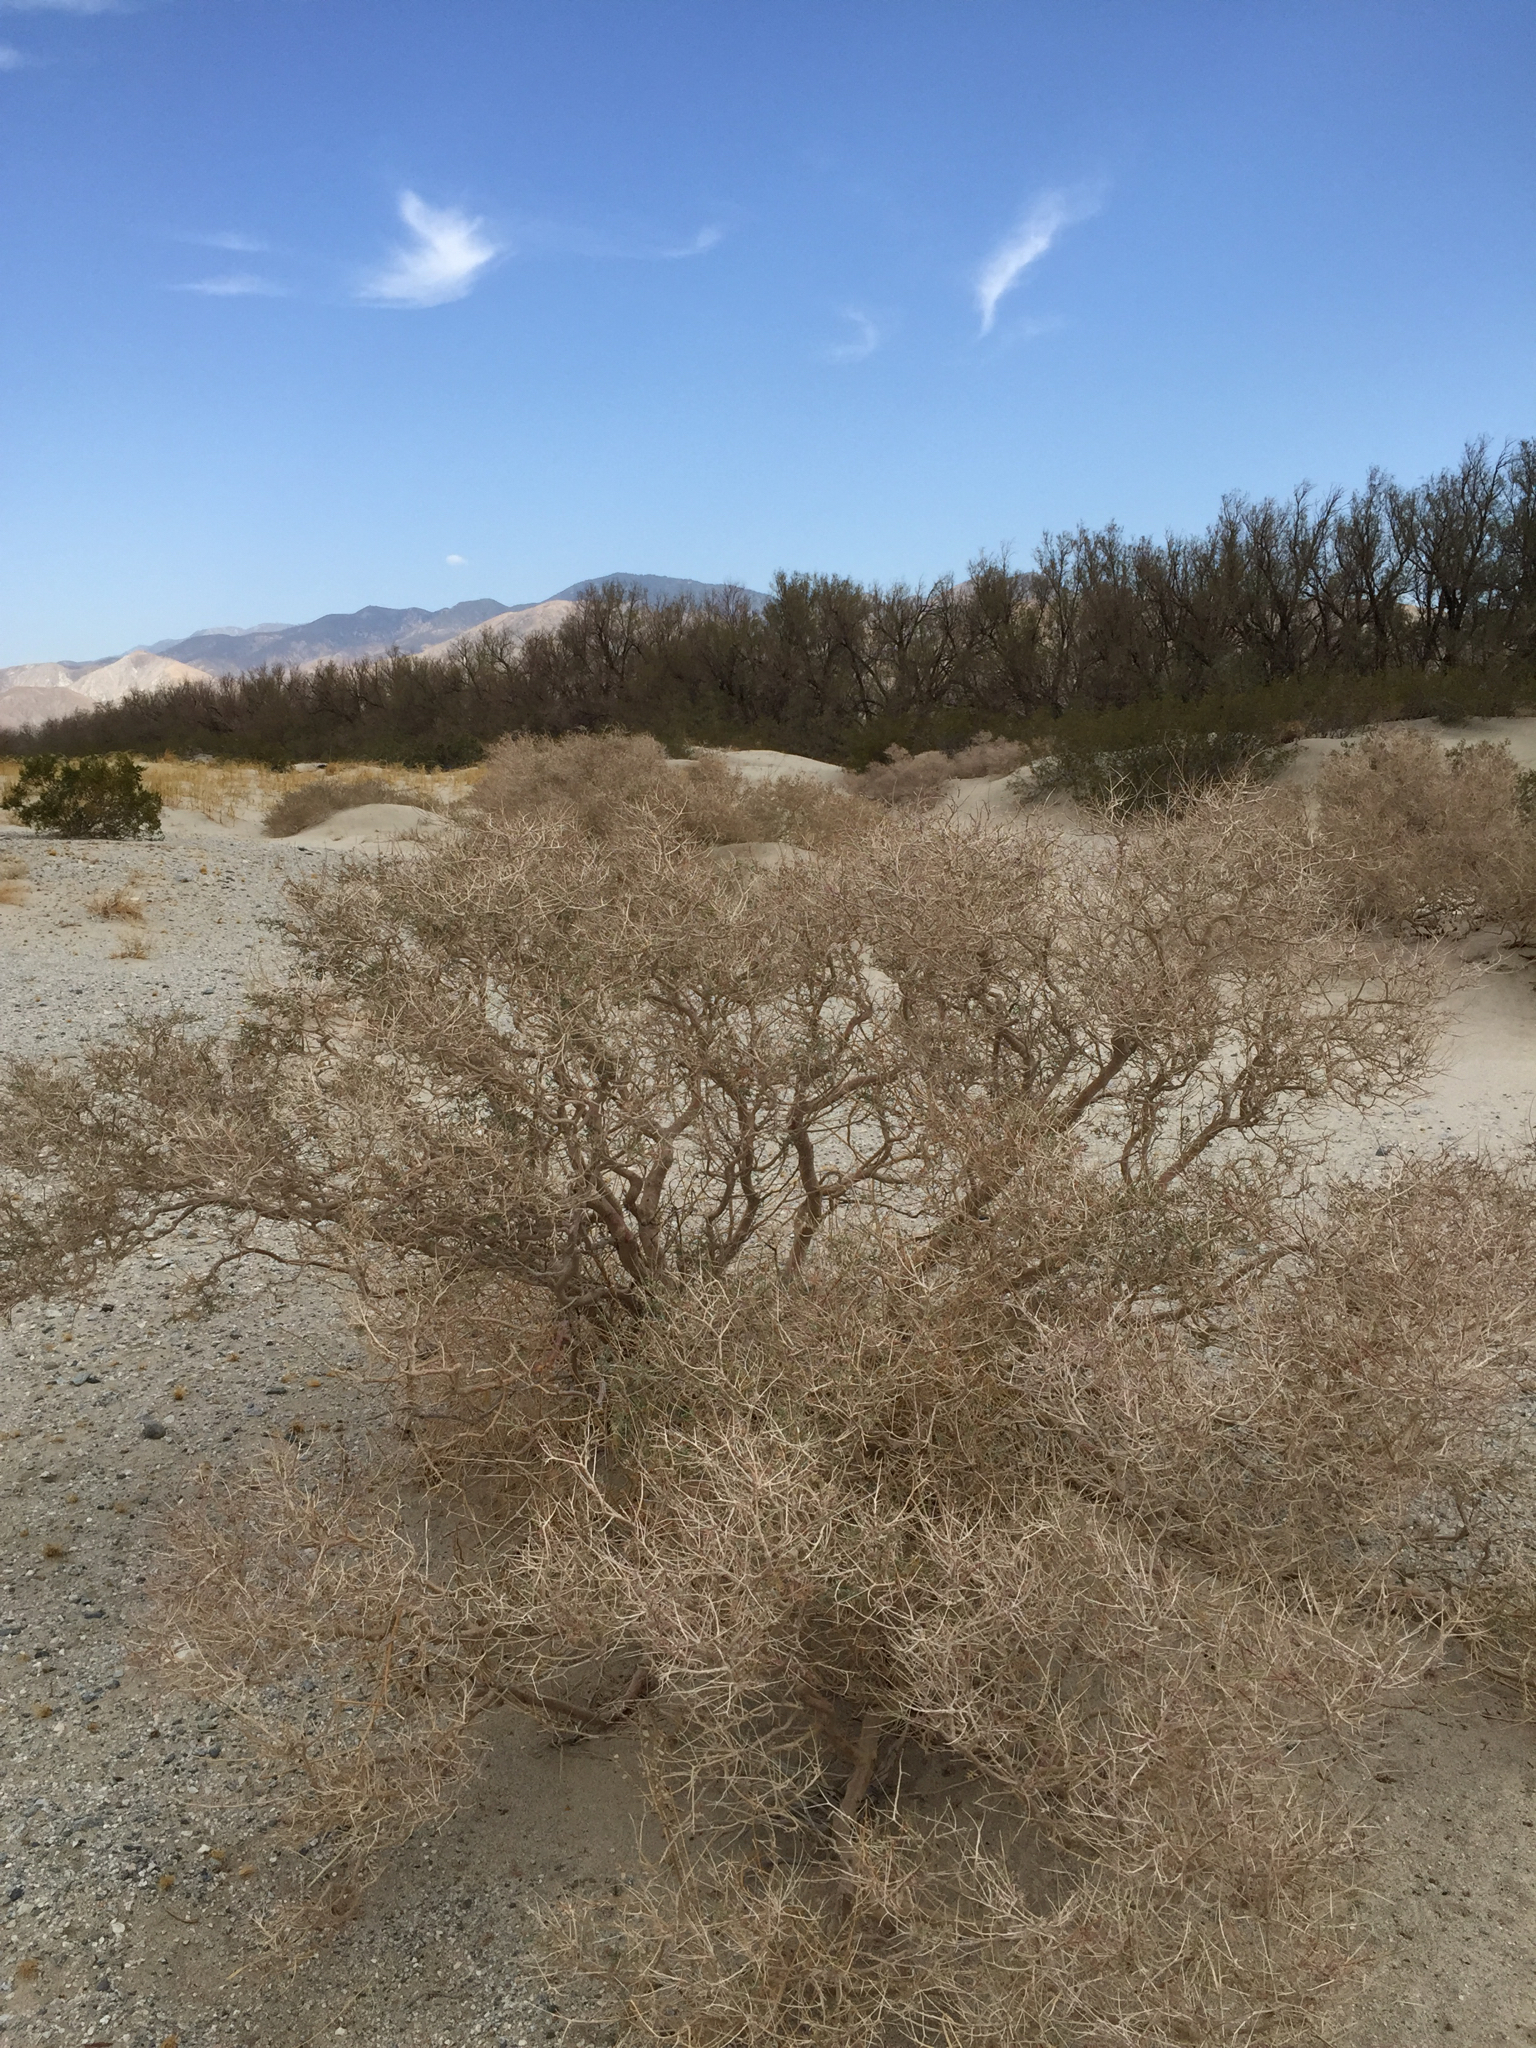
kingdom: Plantae
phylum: Tracheophyta
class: Magnoliopsida
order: Fabales
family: Fabaceae
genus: Psorothamnus
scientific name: Psorothamnus arborescens
